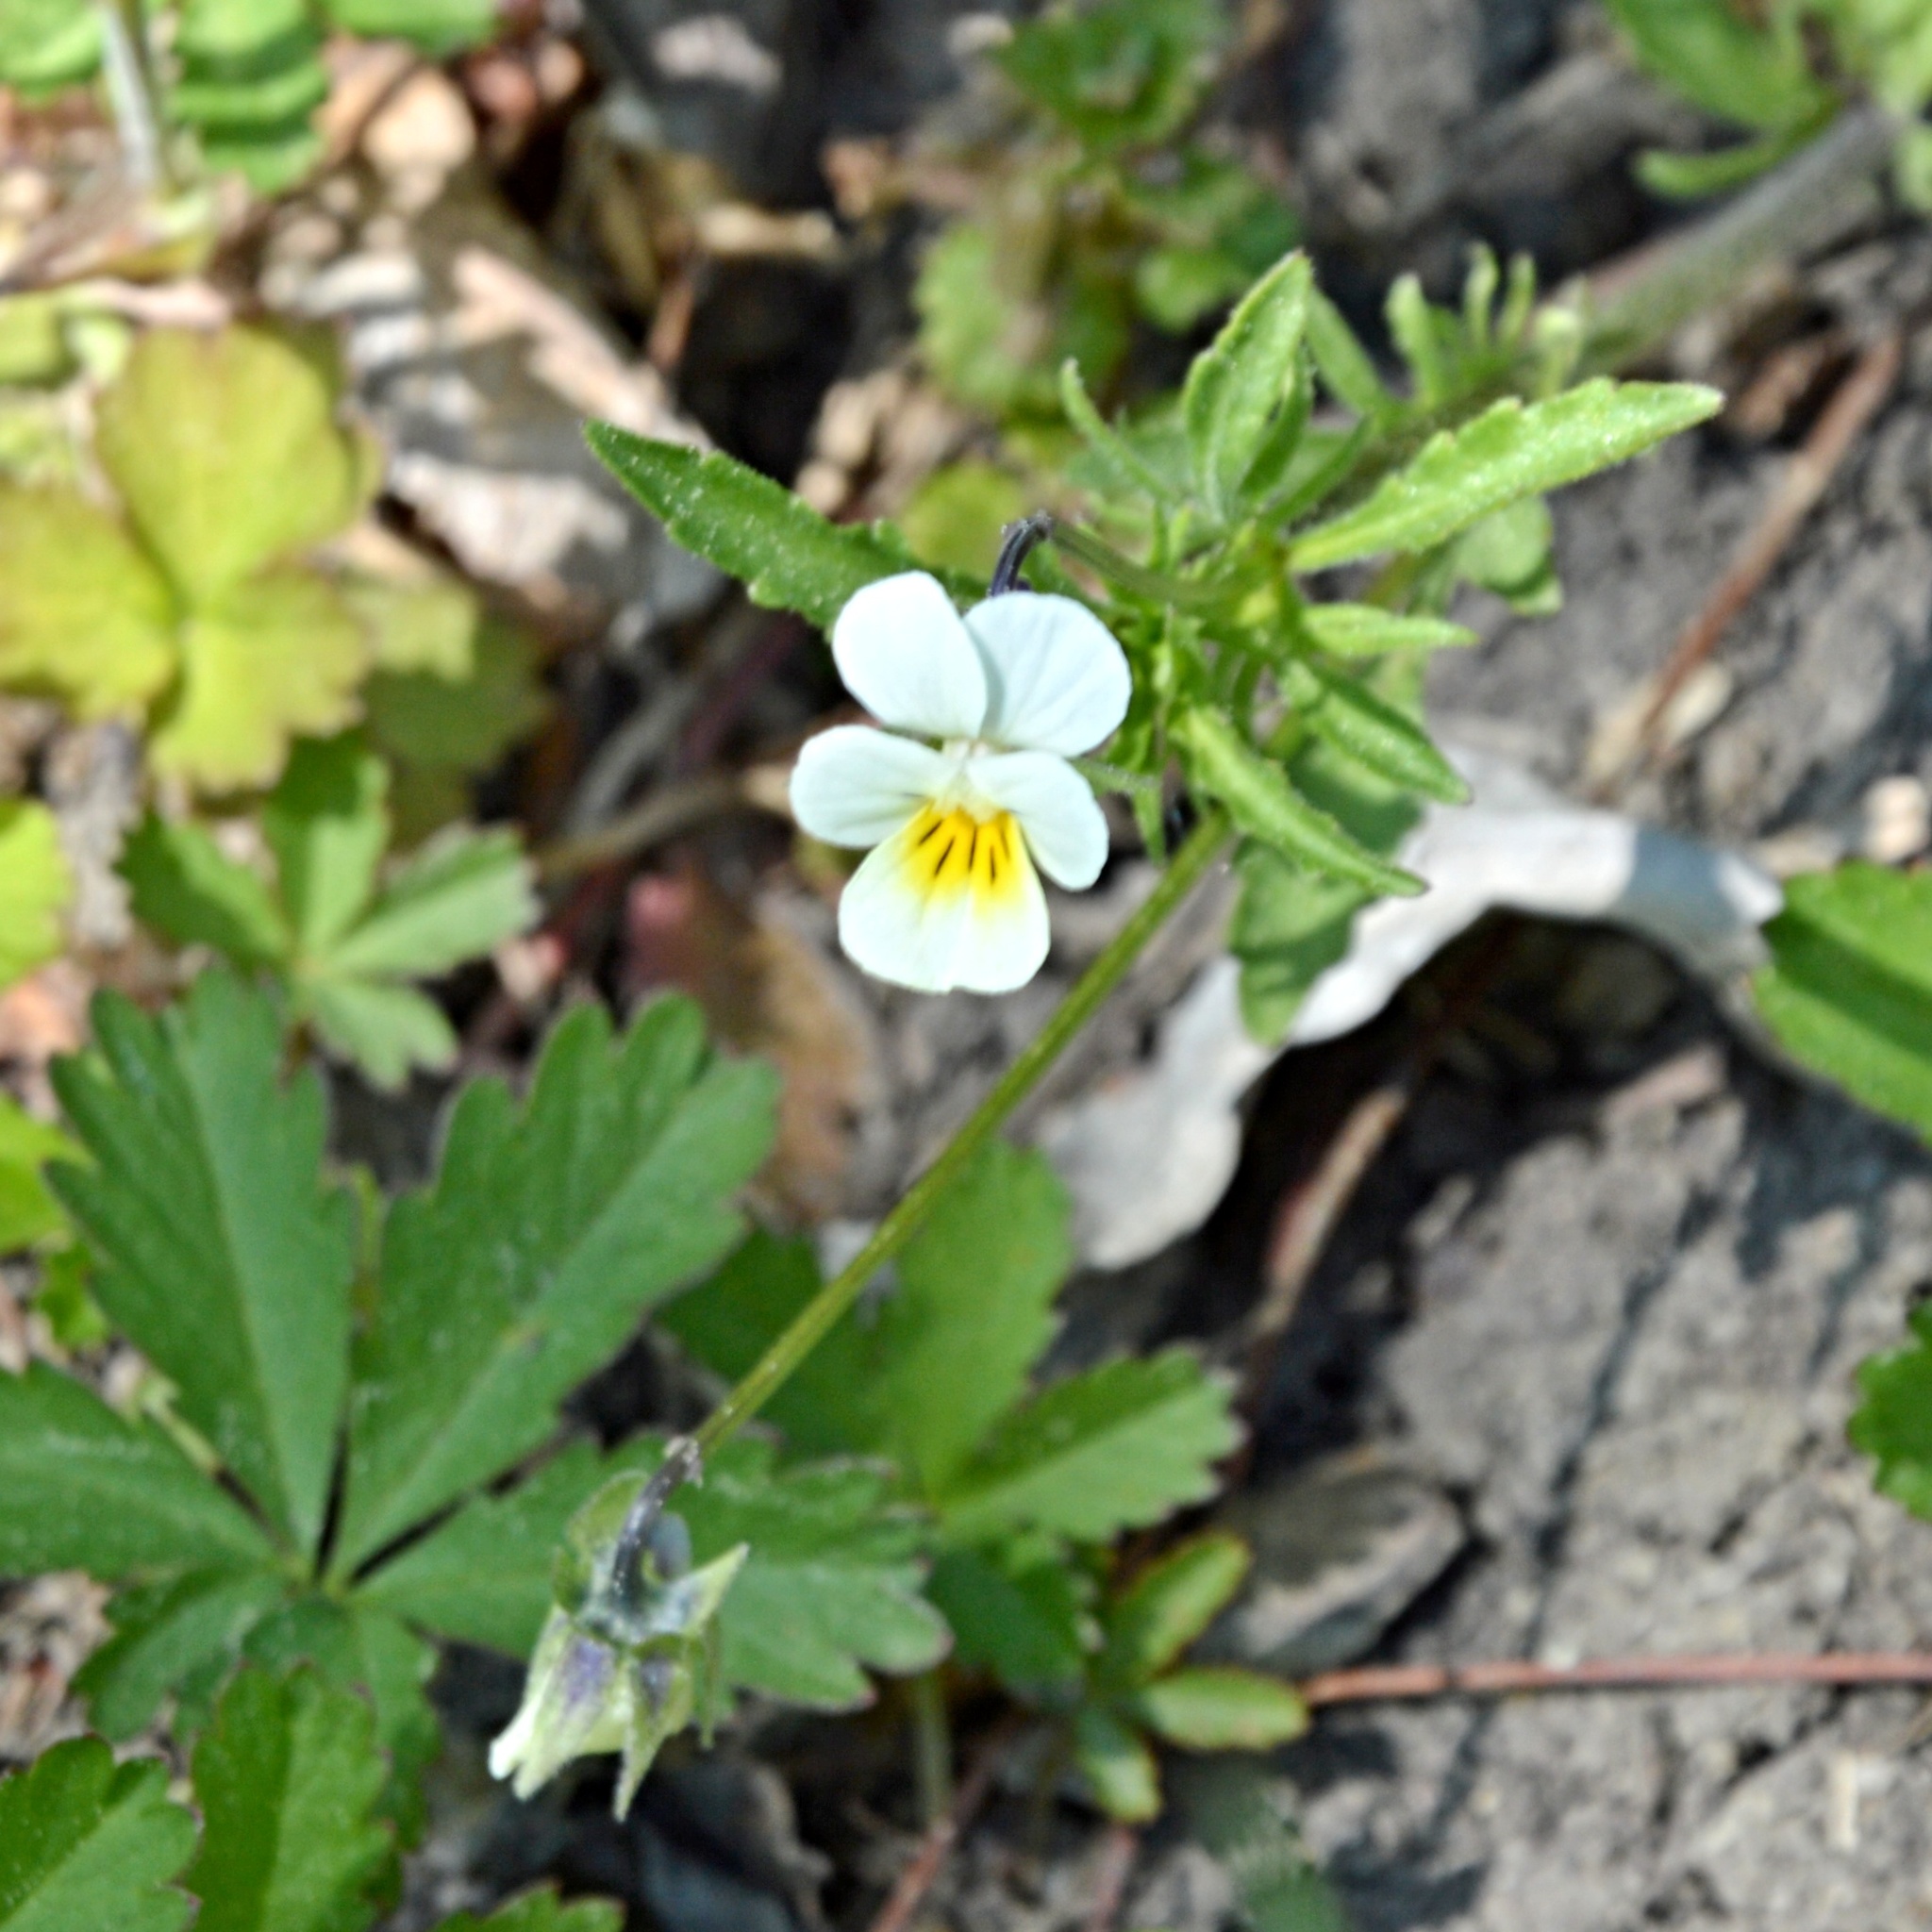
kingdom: Plantae
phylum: Tracheophyta
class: Magnoliopsida
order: Malpighiales
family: Violaceae
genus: Viola
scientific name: Viola arvensis
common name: Field pansy
